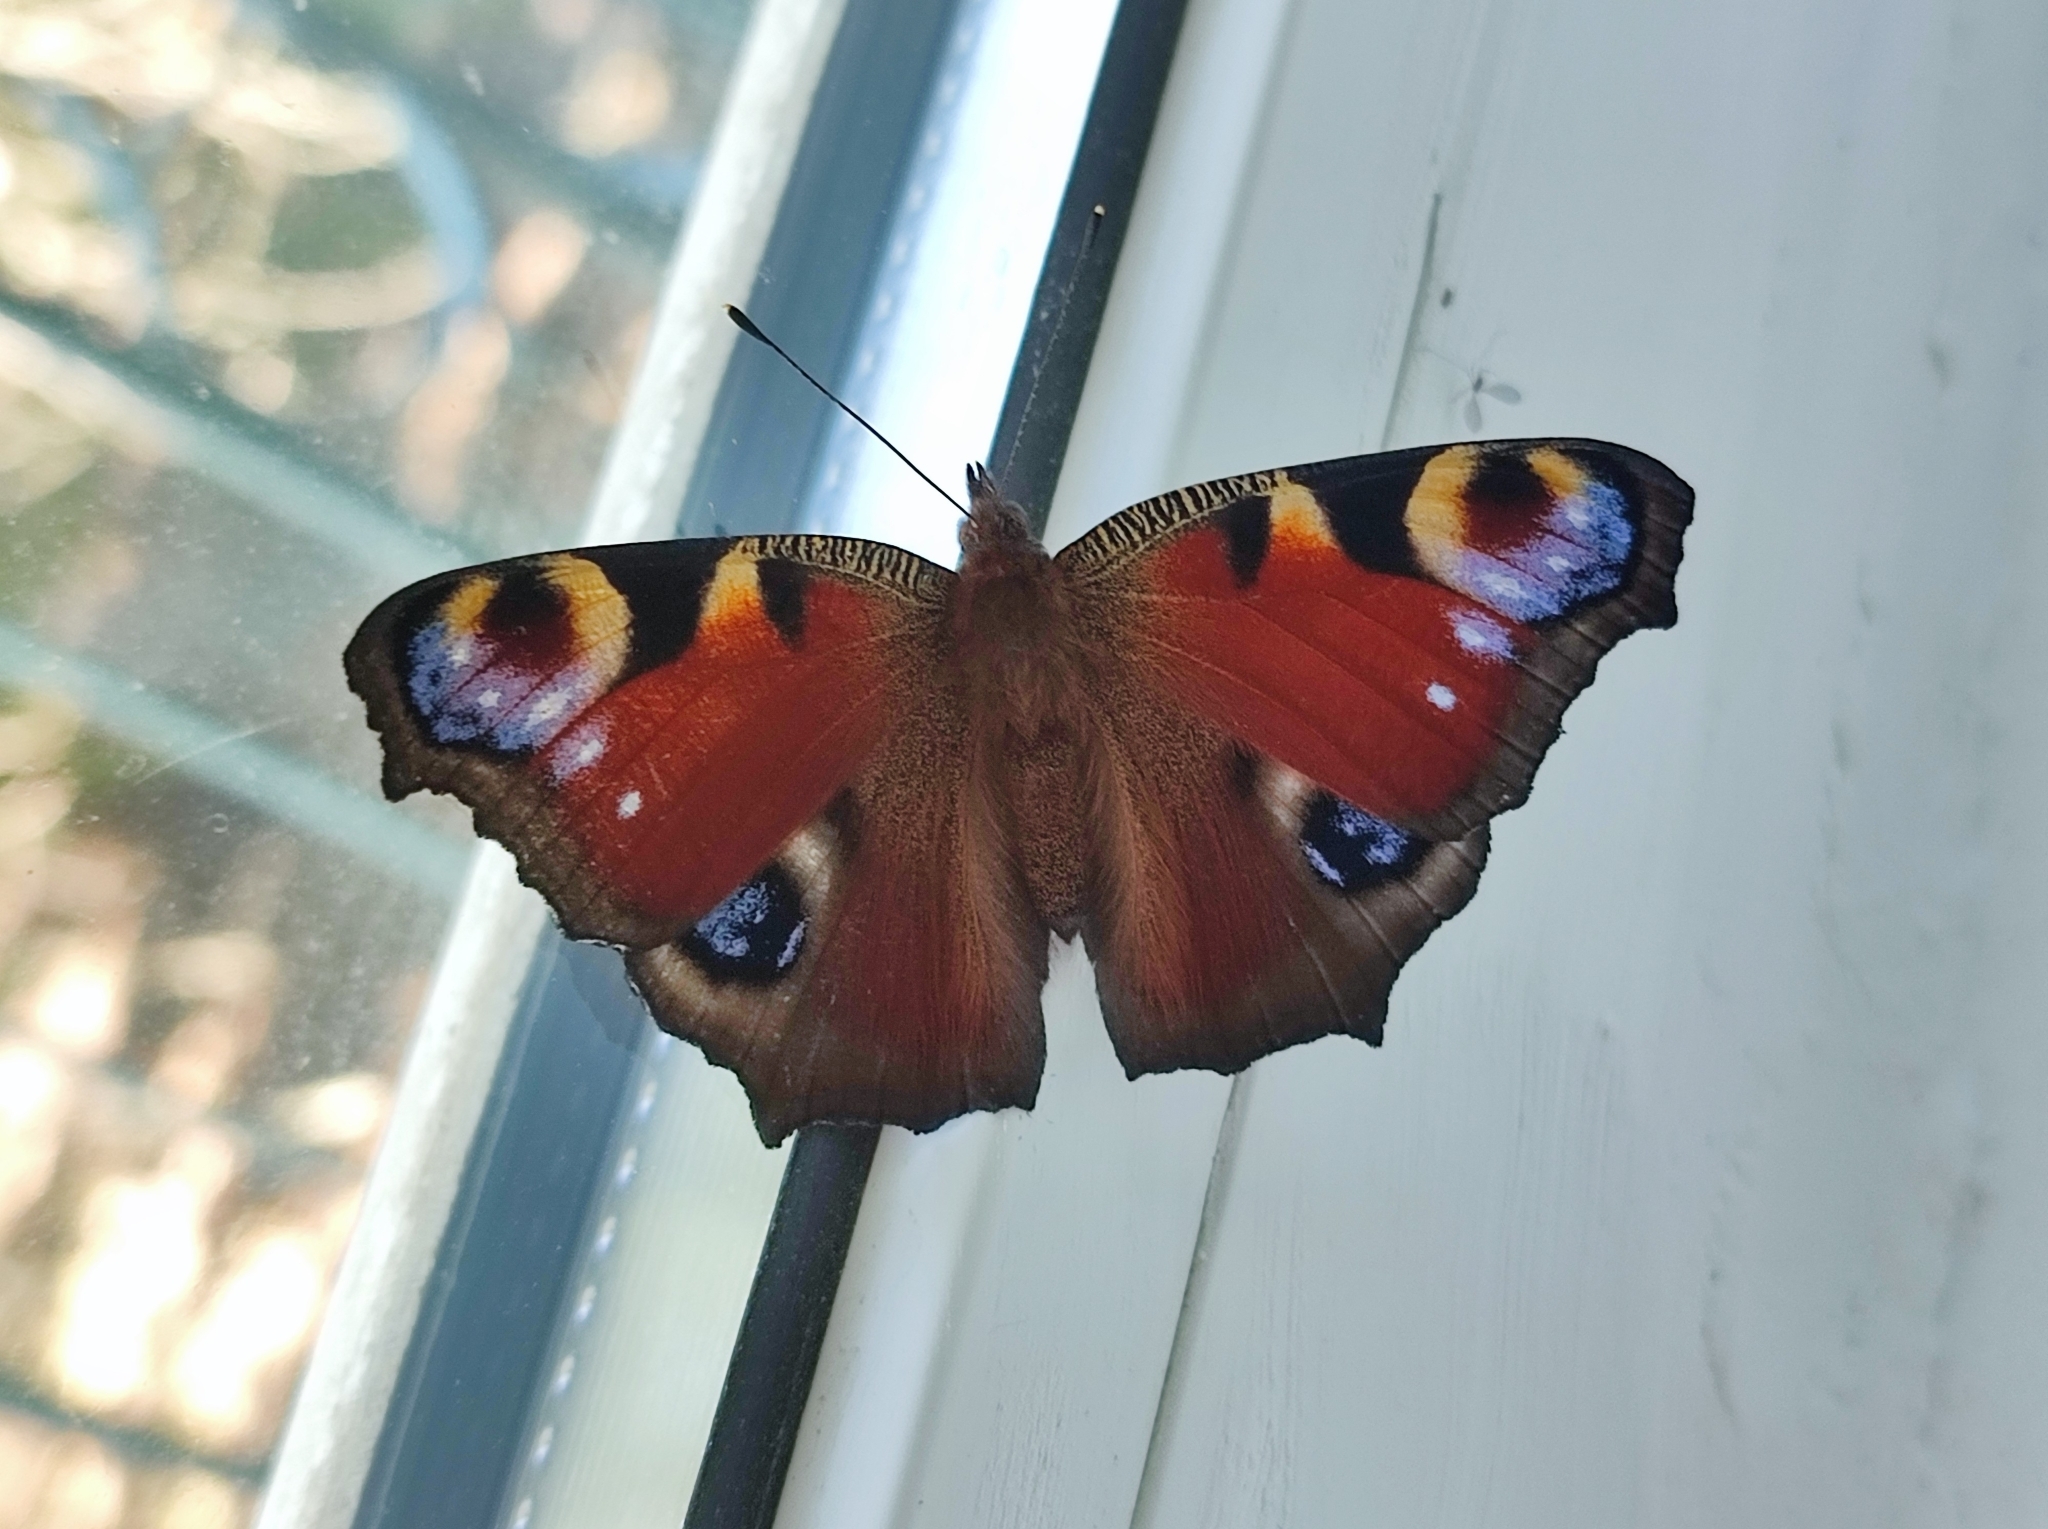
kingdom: Animalia
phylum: Arthropoda
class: Insecta
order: Lepidoptera
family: Nymphalidae
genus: Aglais
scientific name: Aglais io
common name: Peacock
